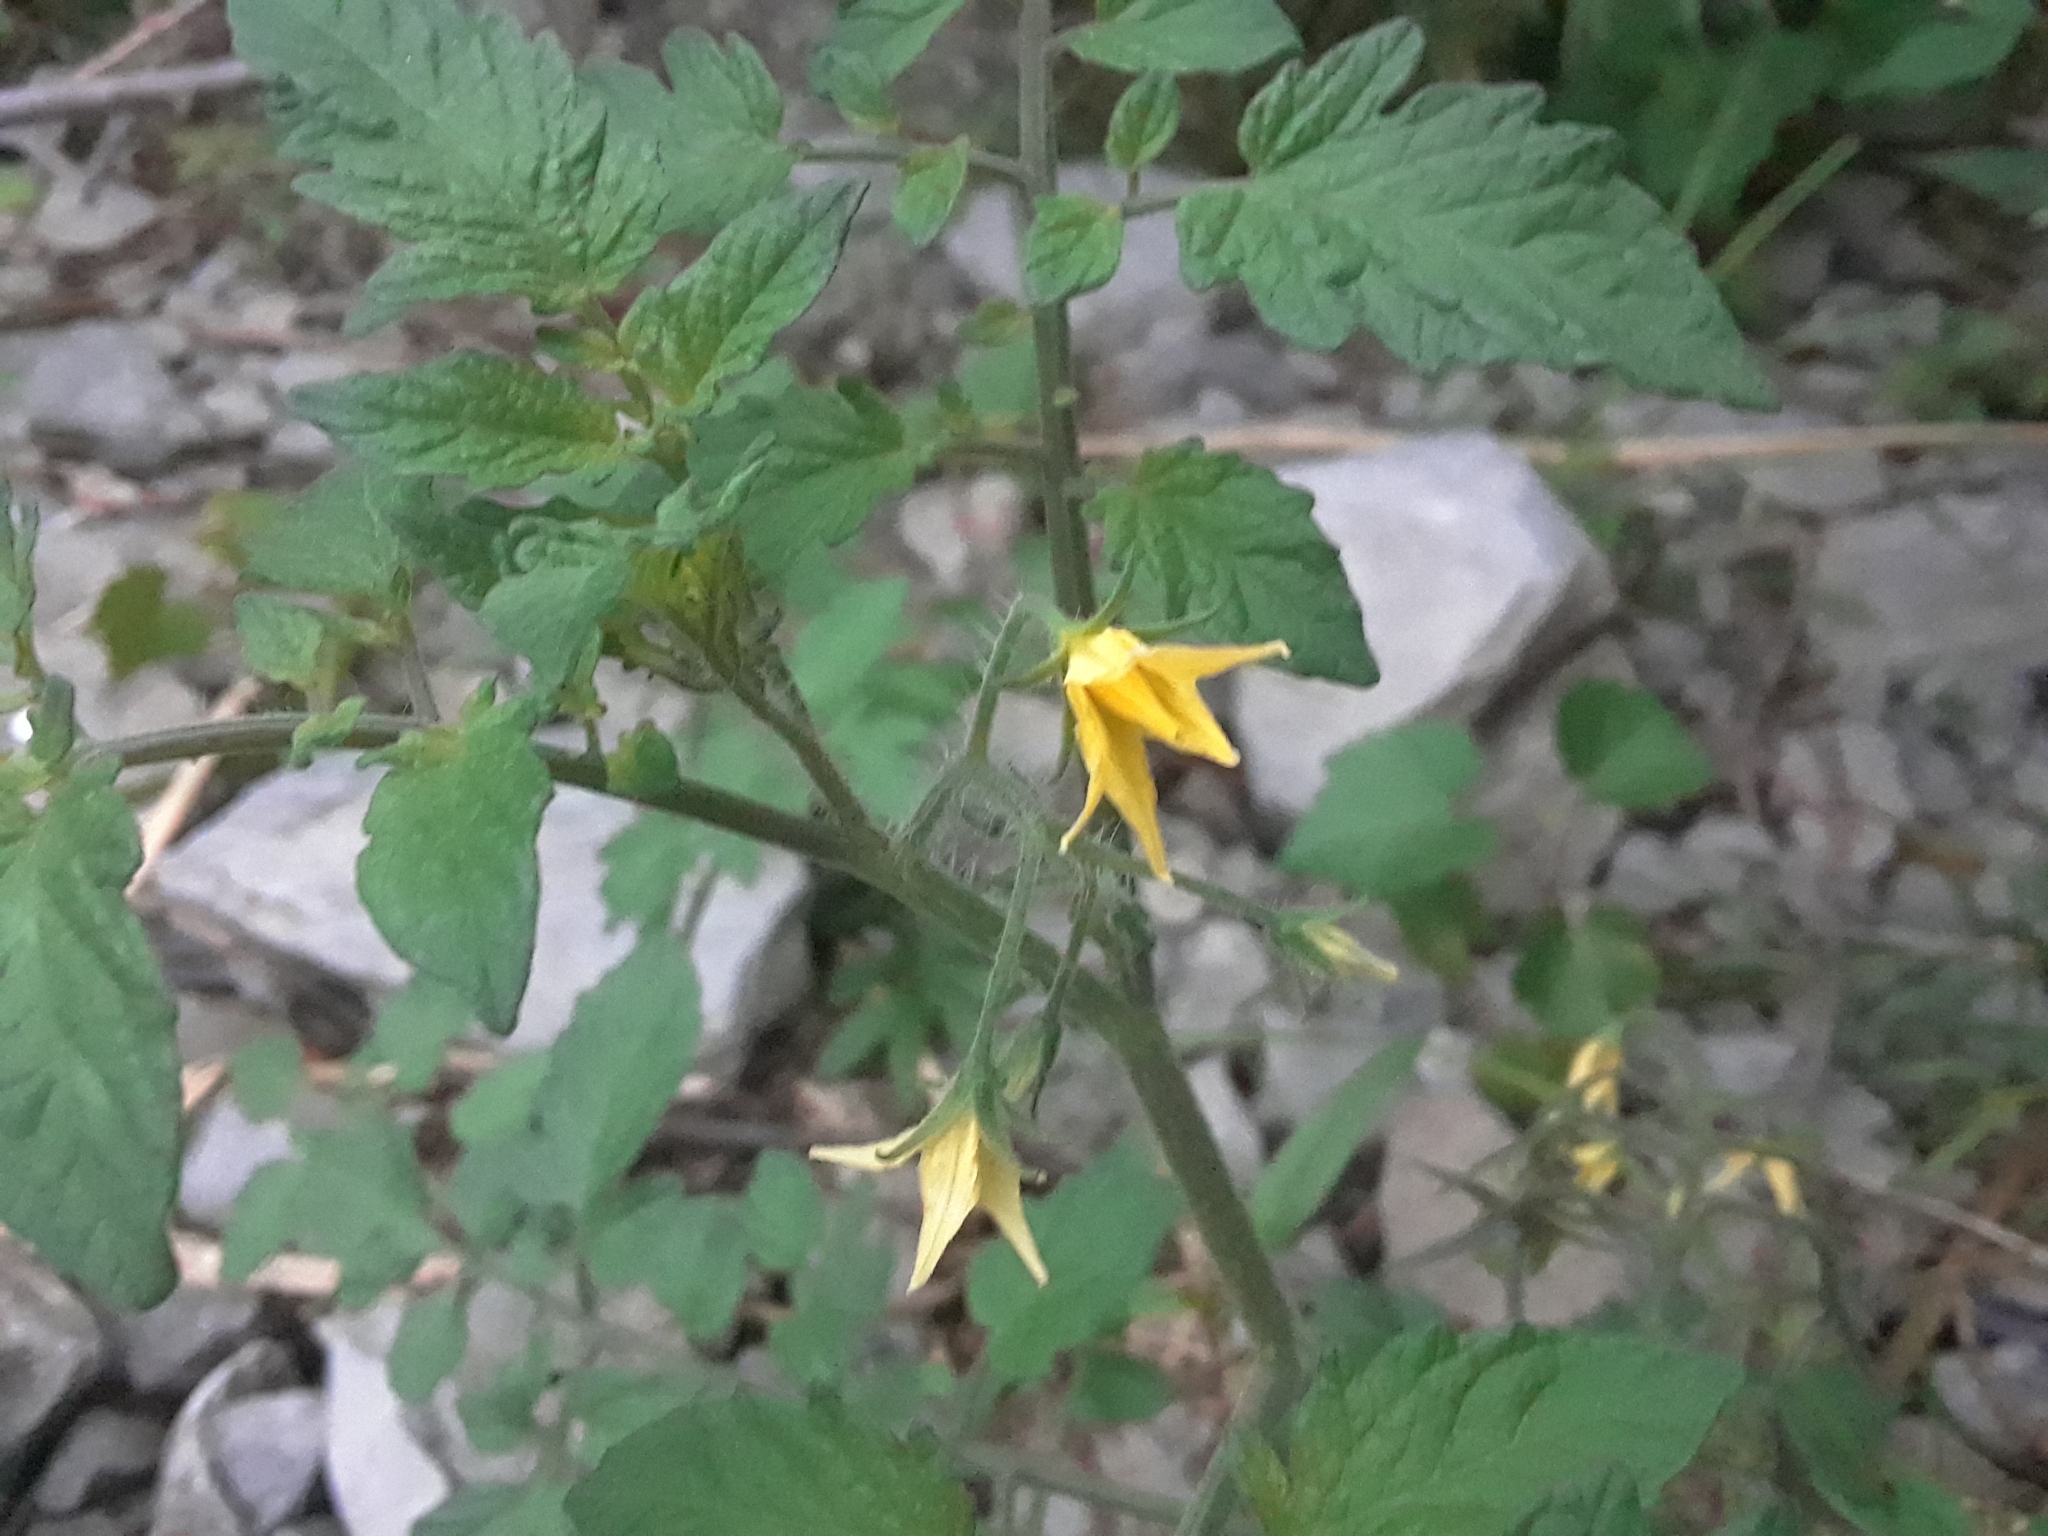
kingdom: Plantae
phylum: Tracheophyta
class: Magnoliopsida
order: Solanales
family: Solanaceae
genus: Solanum
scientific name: Solanum lycopersicum
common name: Garden tomato
